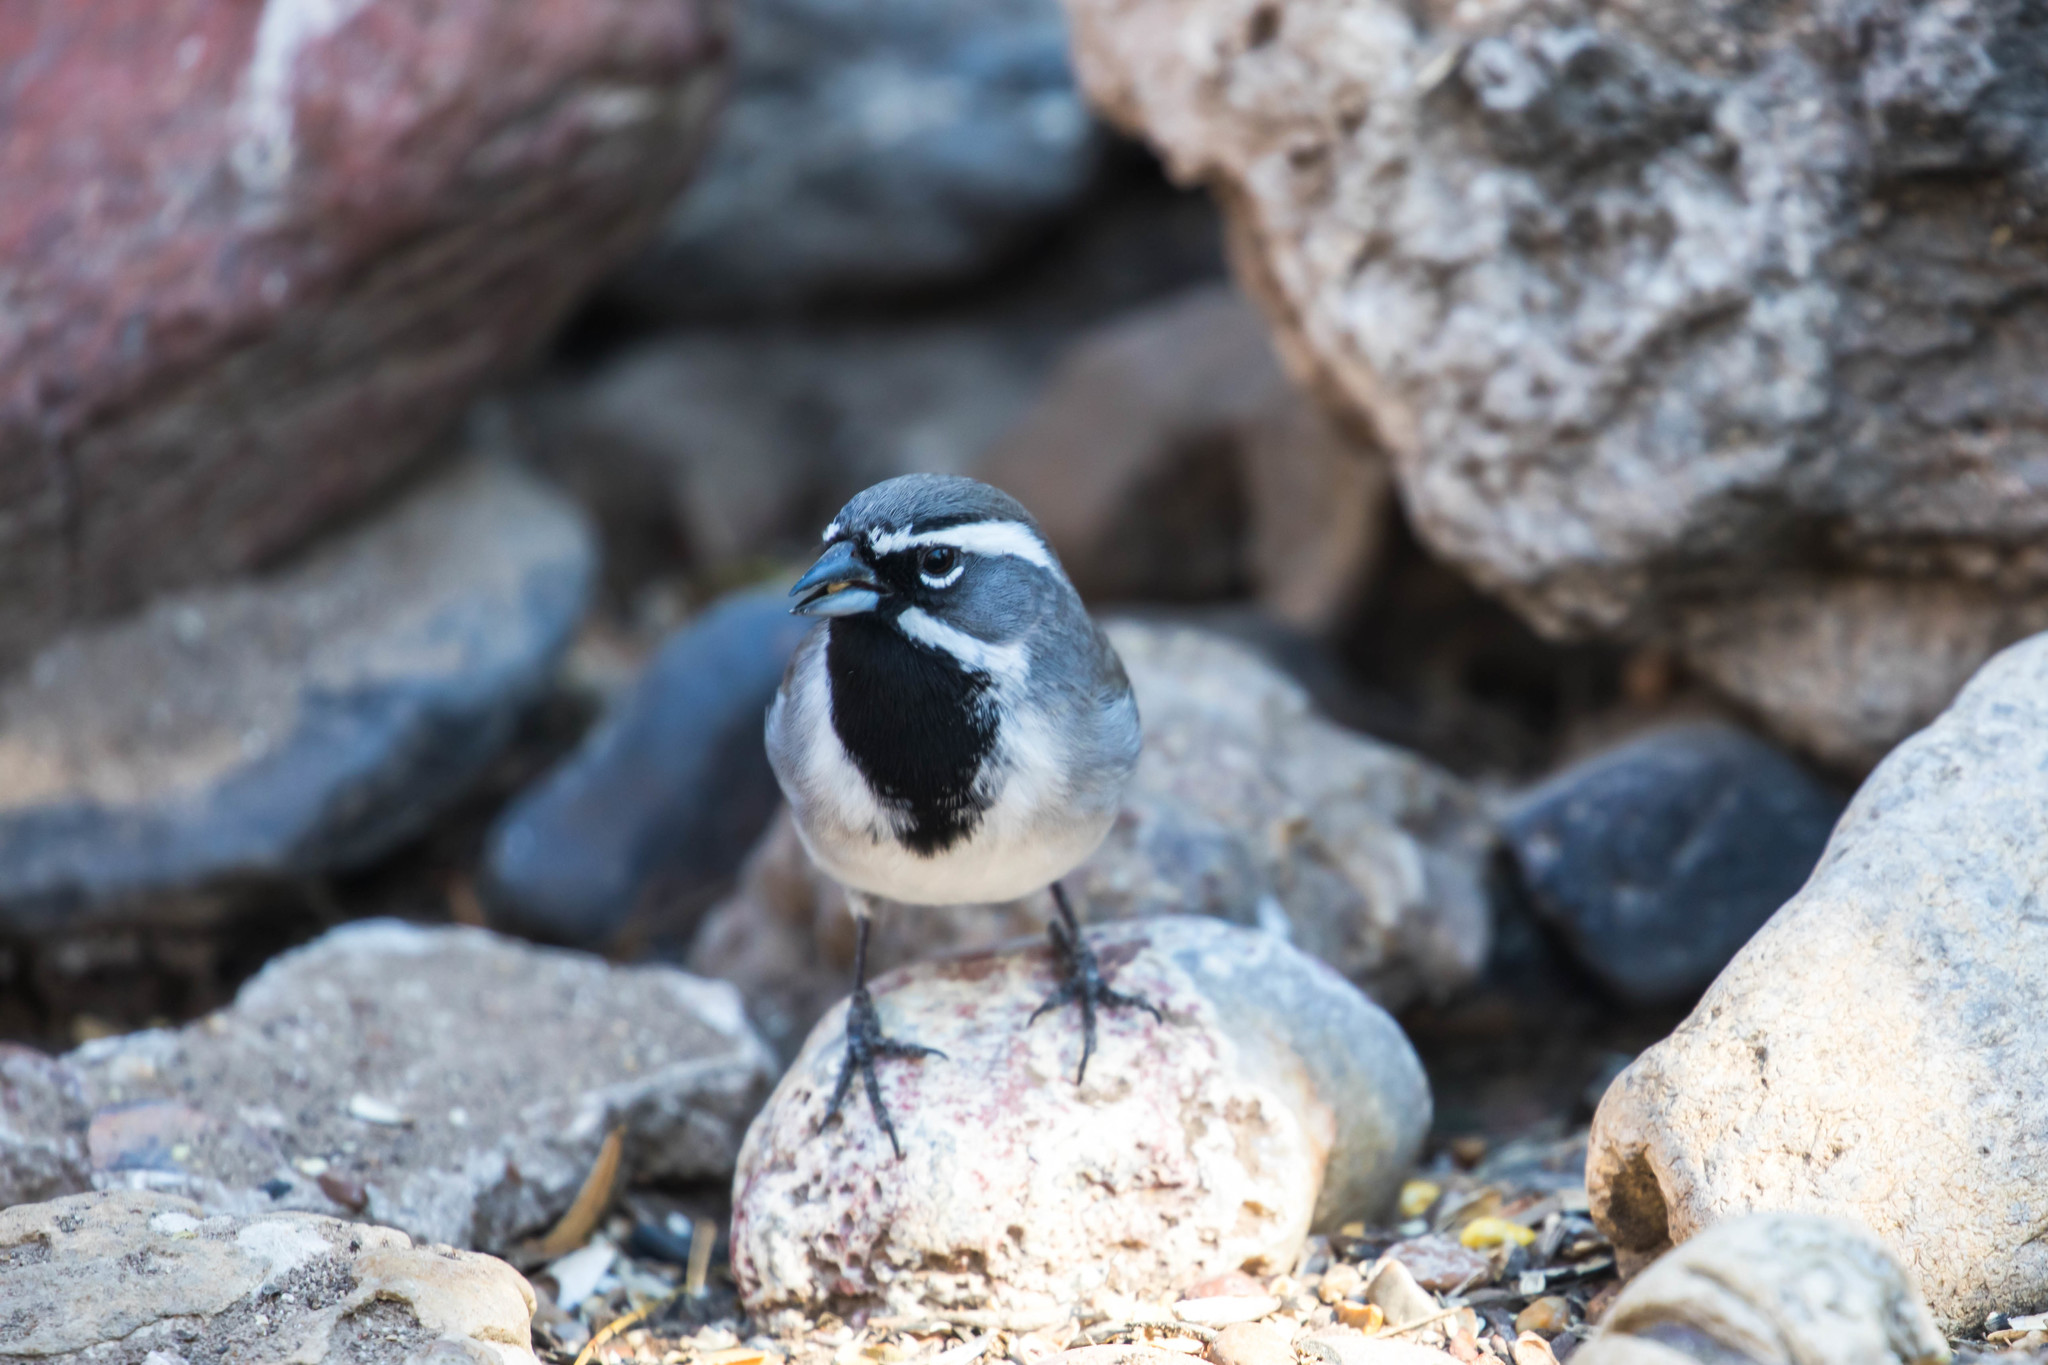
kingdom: Animalia
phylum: Chordata
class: Aves
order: Passeriformes
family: Passerellidae
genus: Amphispiza
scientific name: Amphispiza bilineata
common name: Black-throated sparrow
